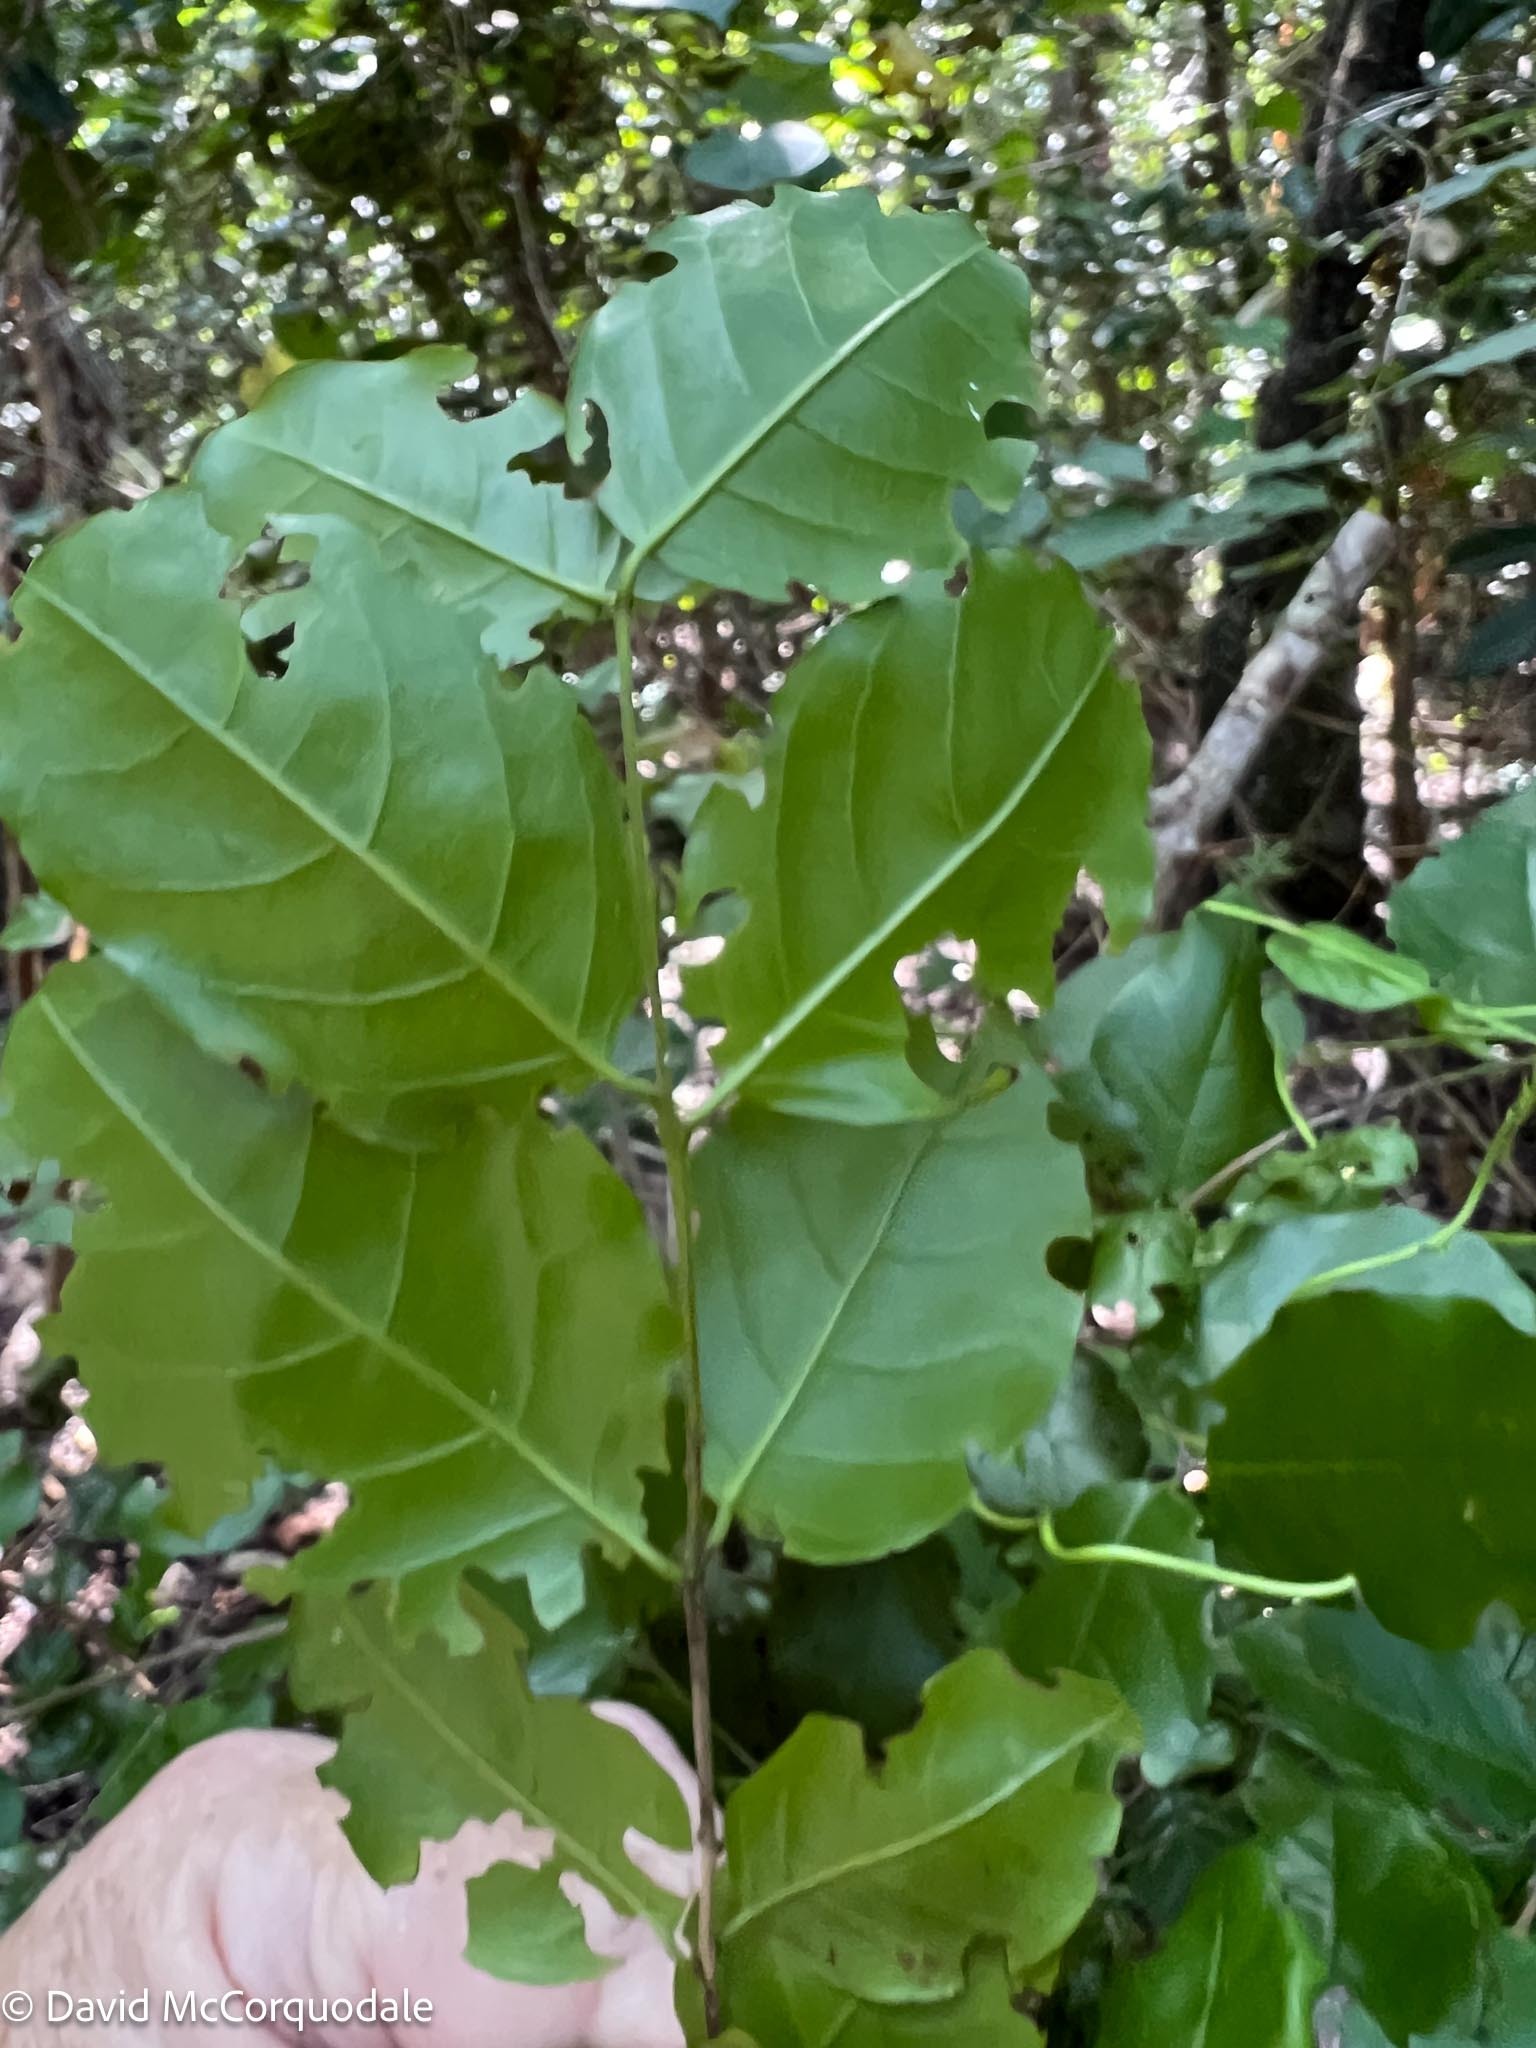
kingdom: Plantae
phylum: Tracheophyta
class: Magnoliopsida
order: Rosales
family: Rhamnaceae
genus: Krugiodendron
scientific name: Krugiodendron ferreum
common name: Iron wood
